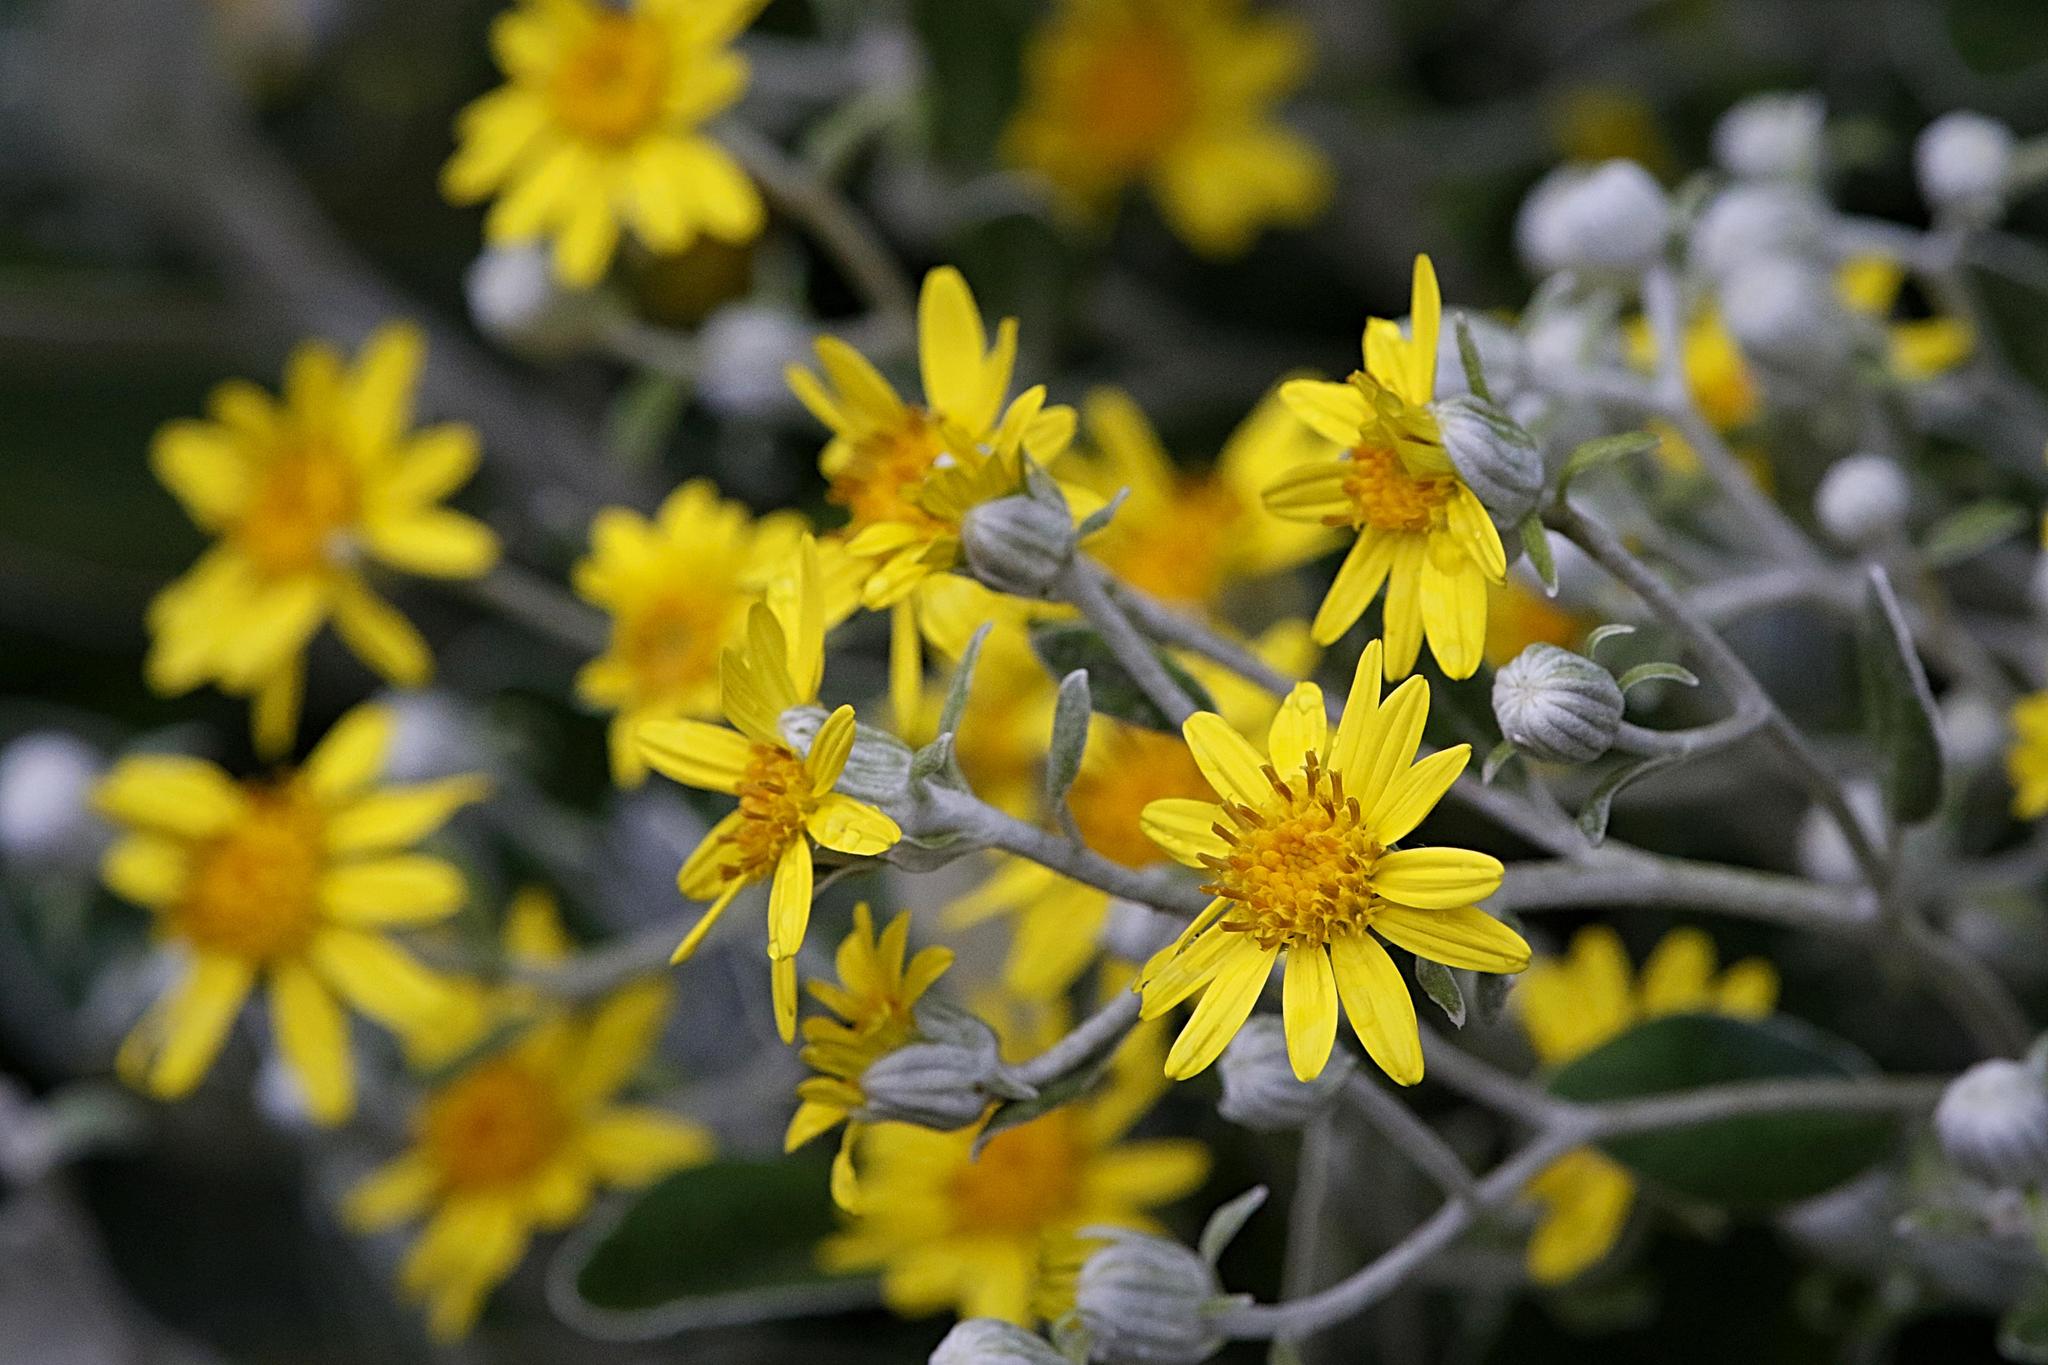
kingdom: Plantae
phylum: Tracheophyta
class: Magnoliopsida
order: Asterales
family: Asteraceae
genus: Jacobaea
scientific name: Jacobaea maritima
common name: Silver ragwort
